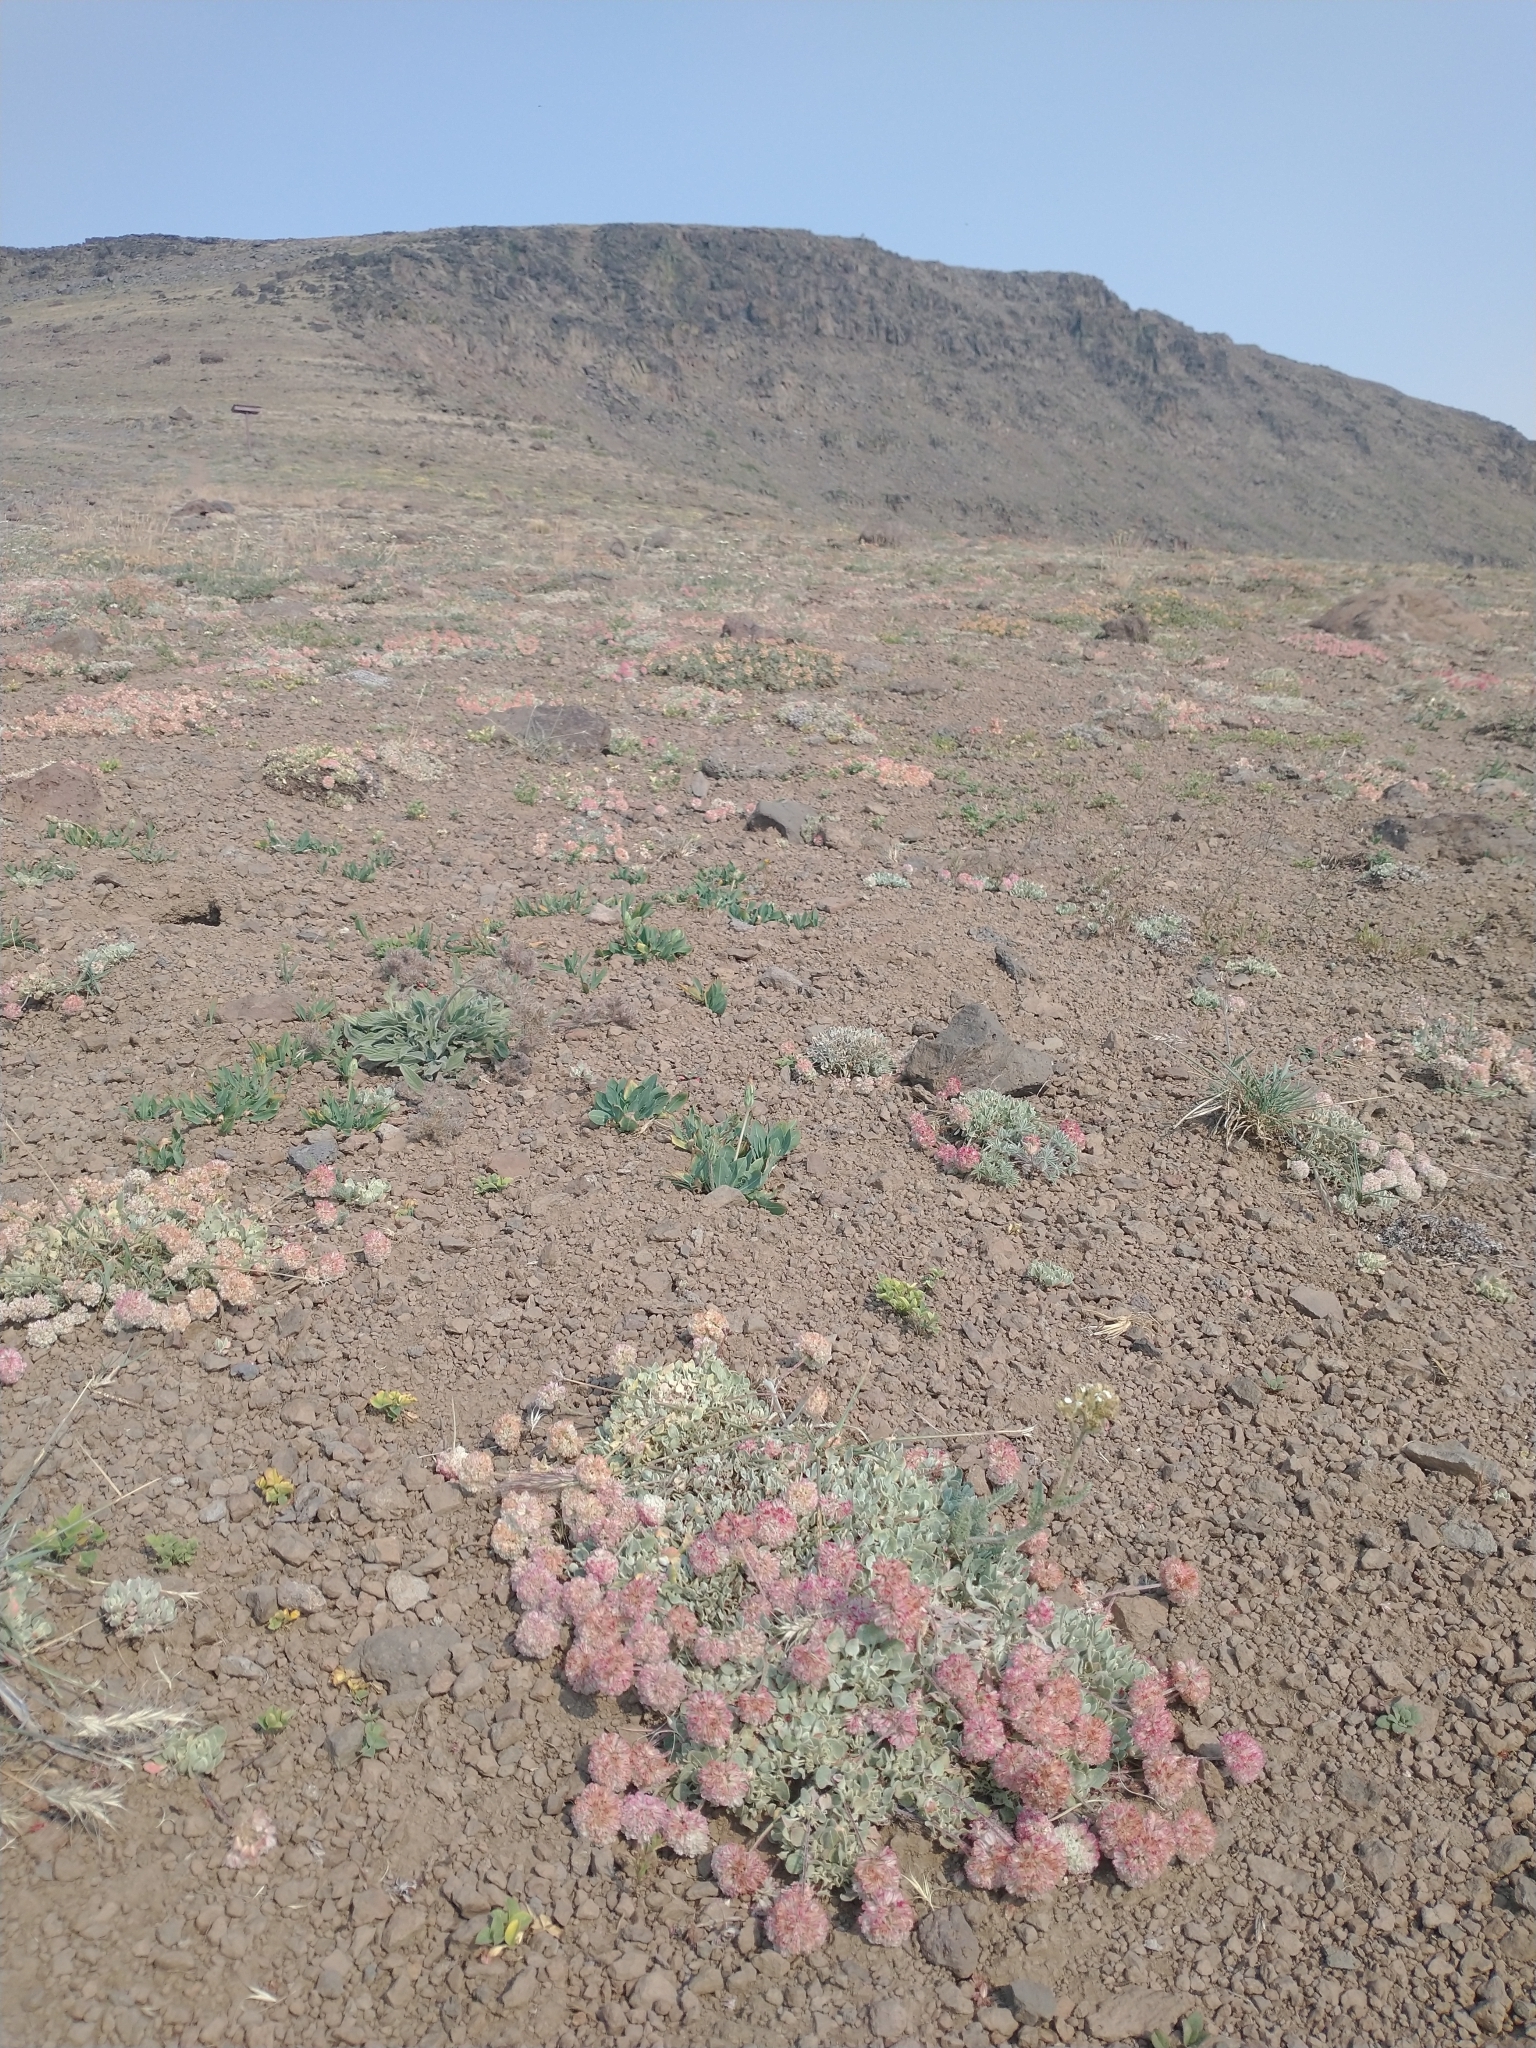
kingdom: Plantae
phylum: Tracheophyta
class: Magnoliopsida
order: Caryophyllales
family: Polygonaceae
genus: Eriogonum
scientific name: Eriogonum ovalifolium
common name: Cushion buckwheat
